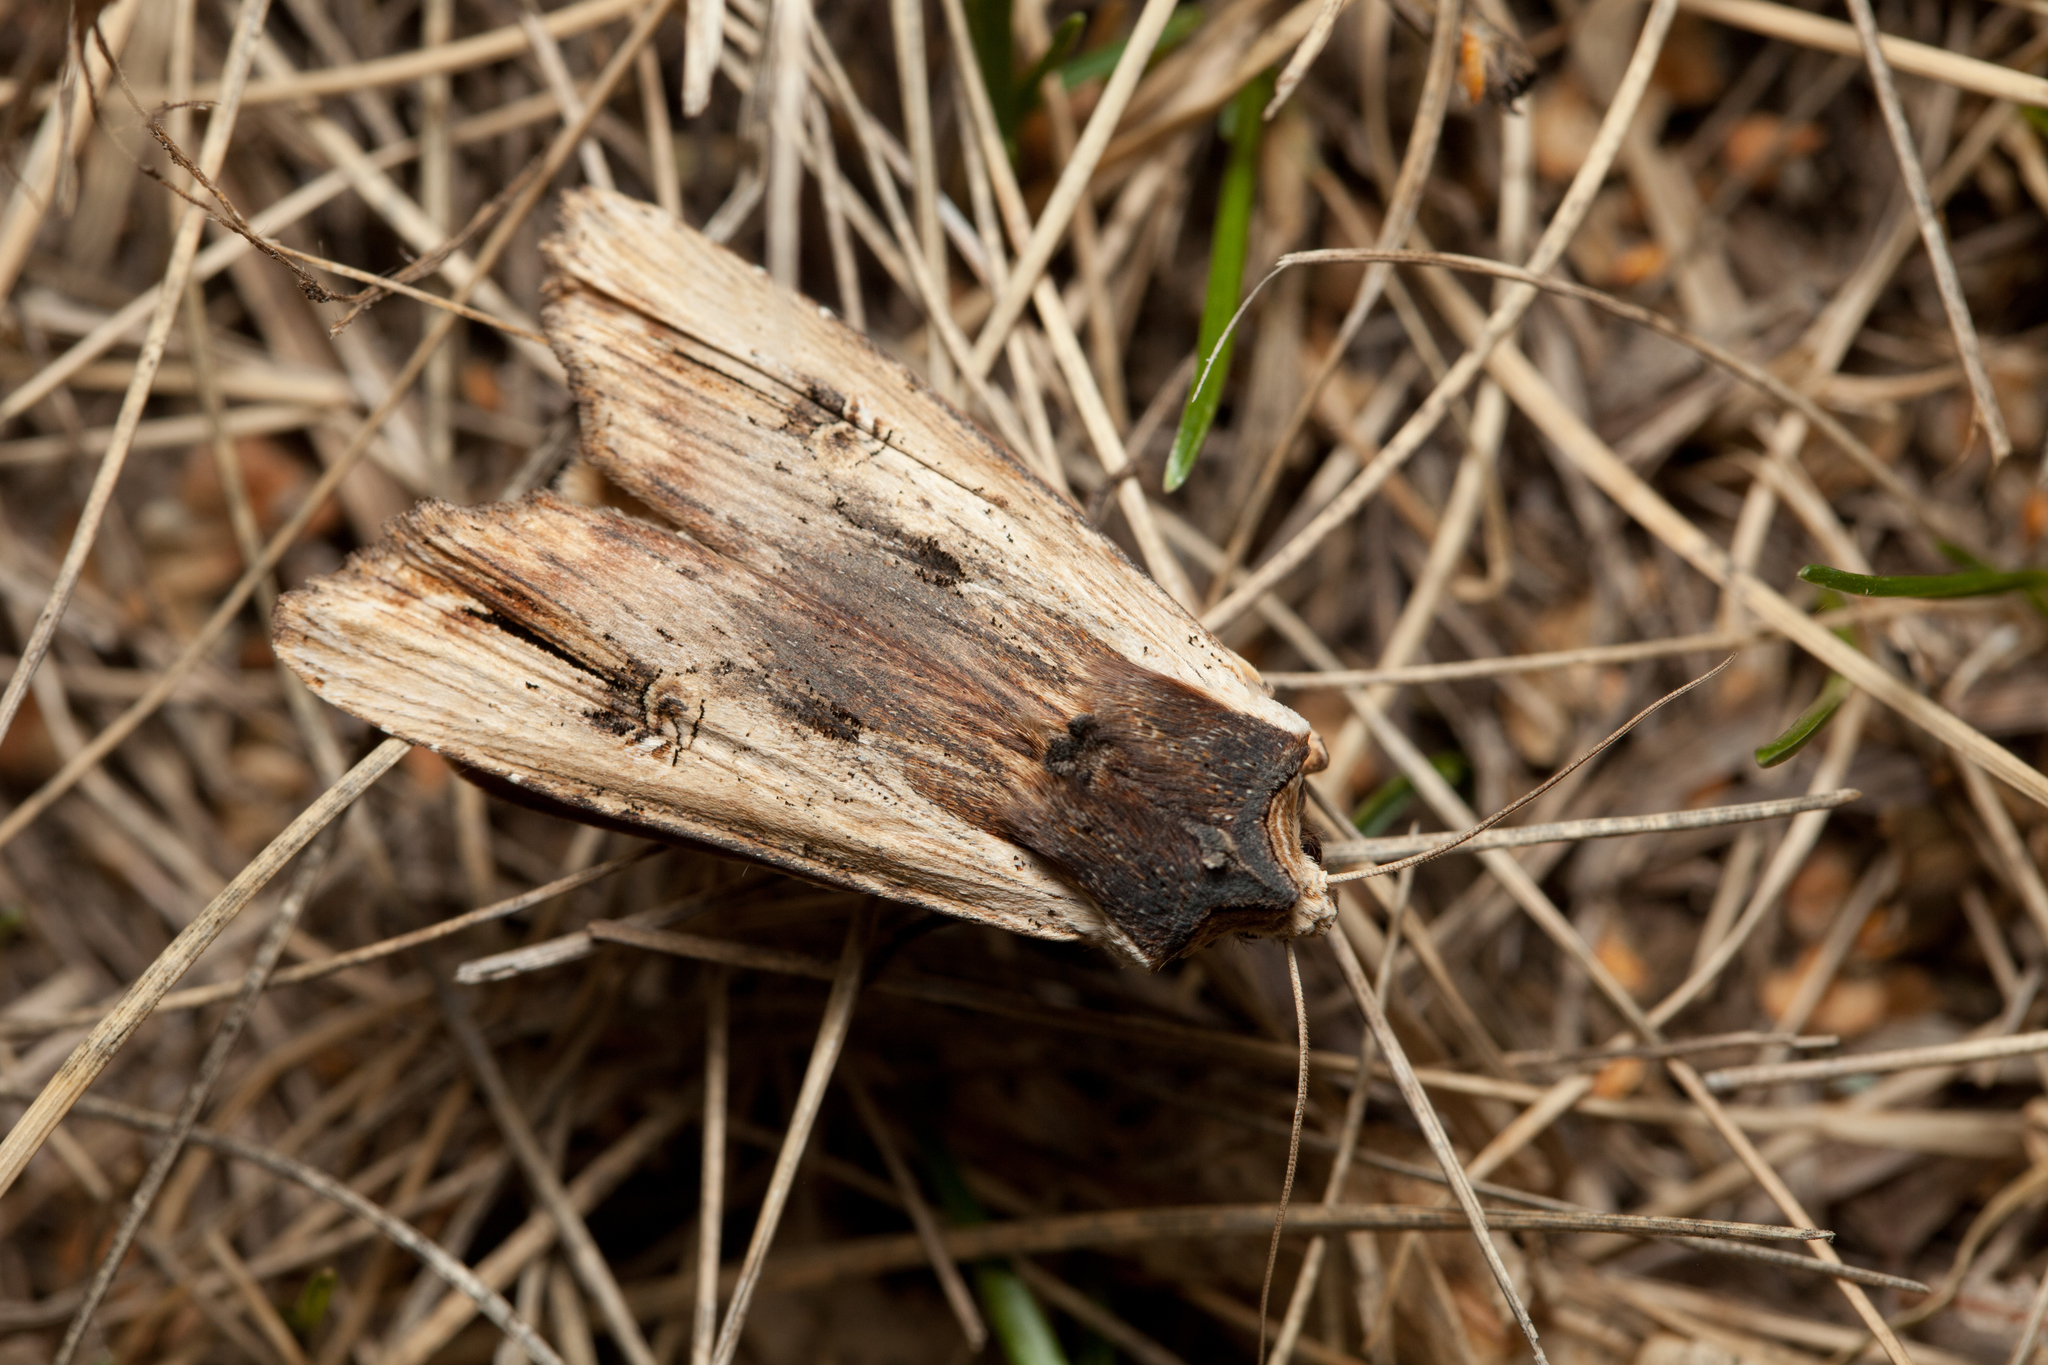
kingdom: Animalia
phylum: Arthropoda
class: Insecta
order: Lepidoptera
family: Noctuidae
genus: Xylena
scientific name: Xylena vetusta
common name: Red sword-grass
